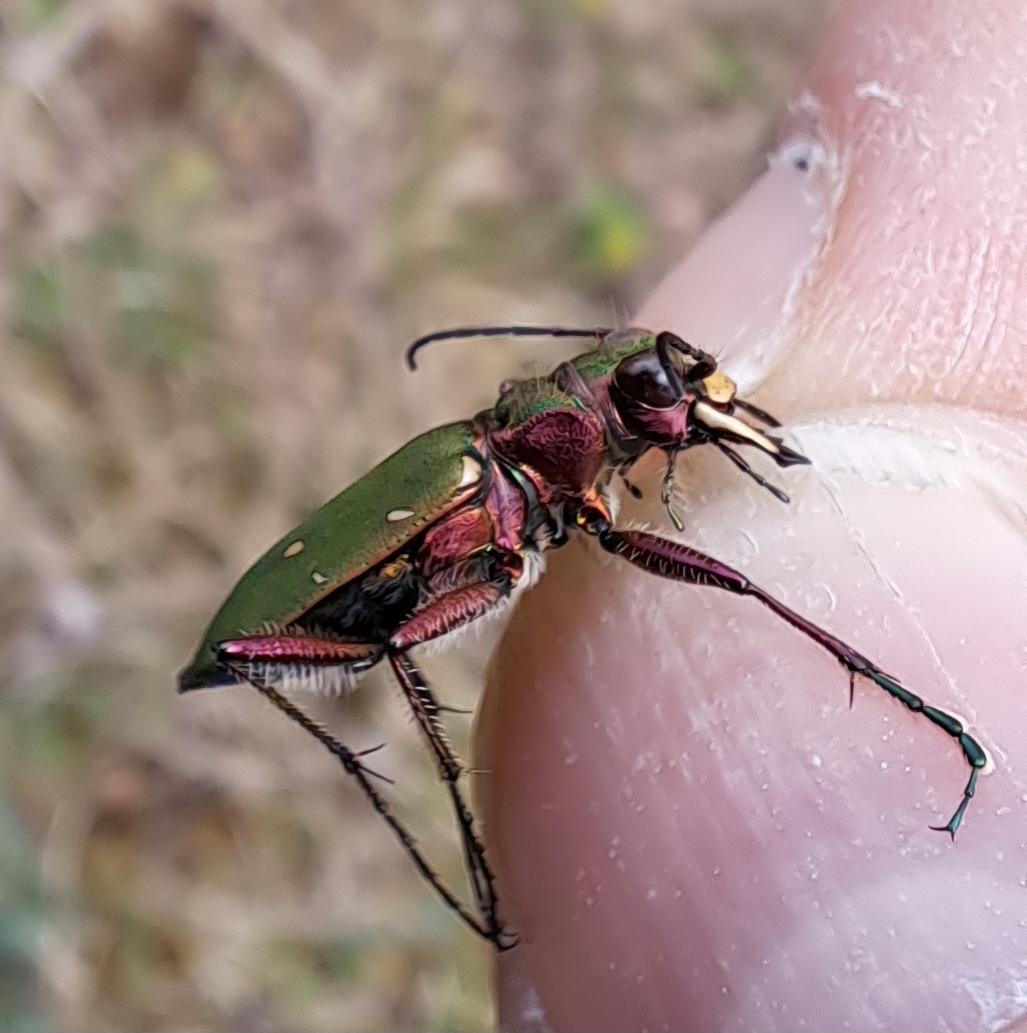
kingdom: Animalia
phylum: Arthropoda
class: Insecta
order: Coleoptera
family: Carabidae
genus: Cicindela
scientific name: Cicindela campestris
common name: Common tiger beetle
